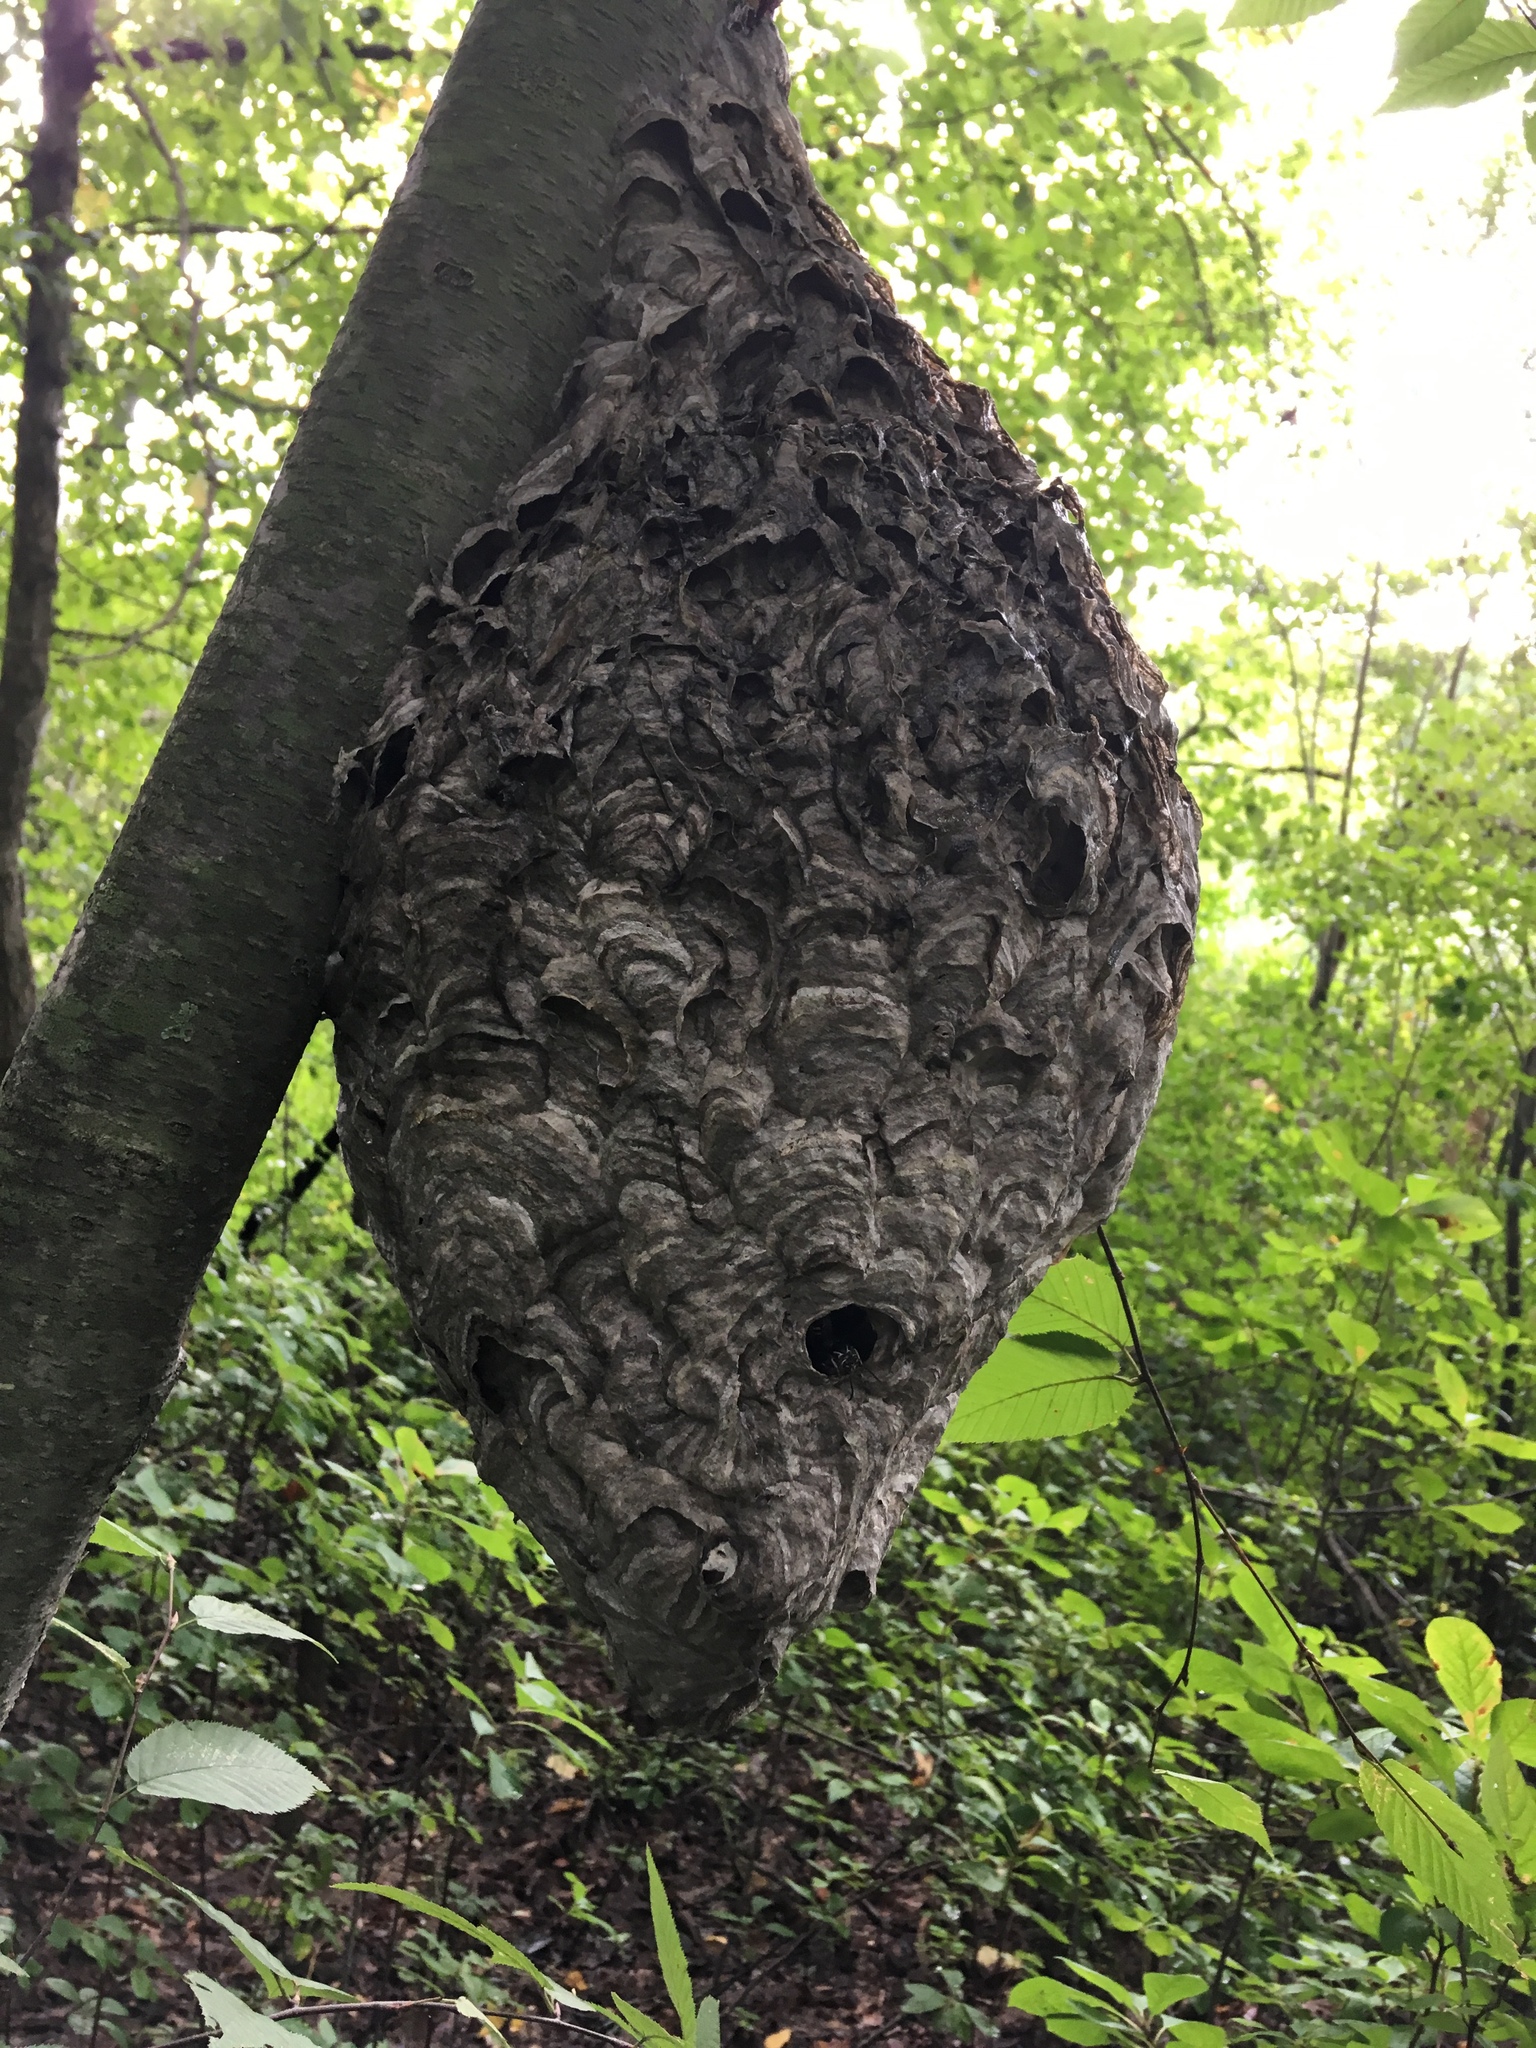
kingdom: Animalia
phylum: Arthropoda
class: Insecta
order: Hymenoptera
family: Vespidae
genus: Dolichovespula
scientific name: Dolichovespula maculata
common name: Bald-faced hornet
